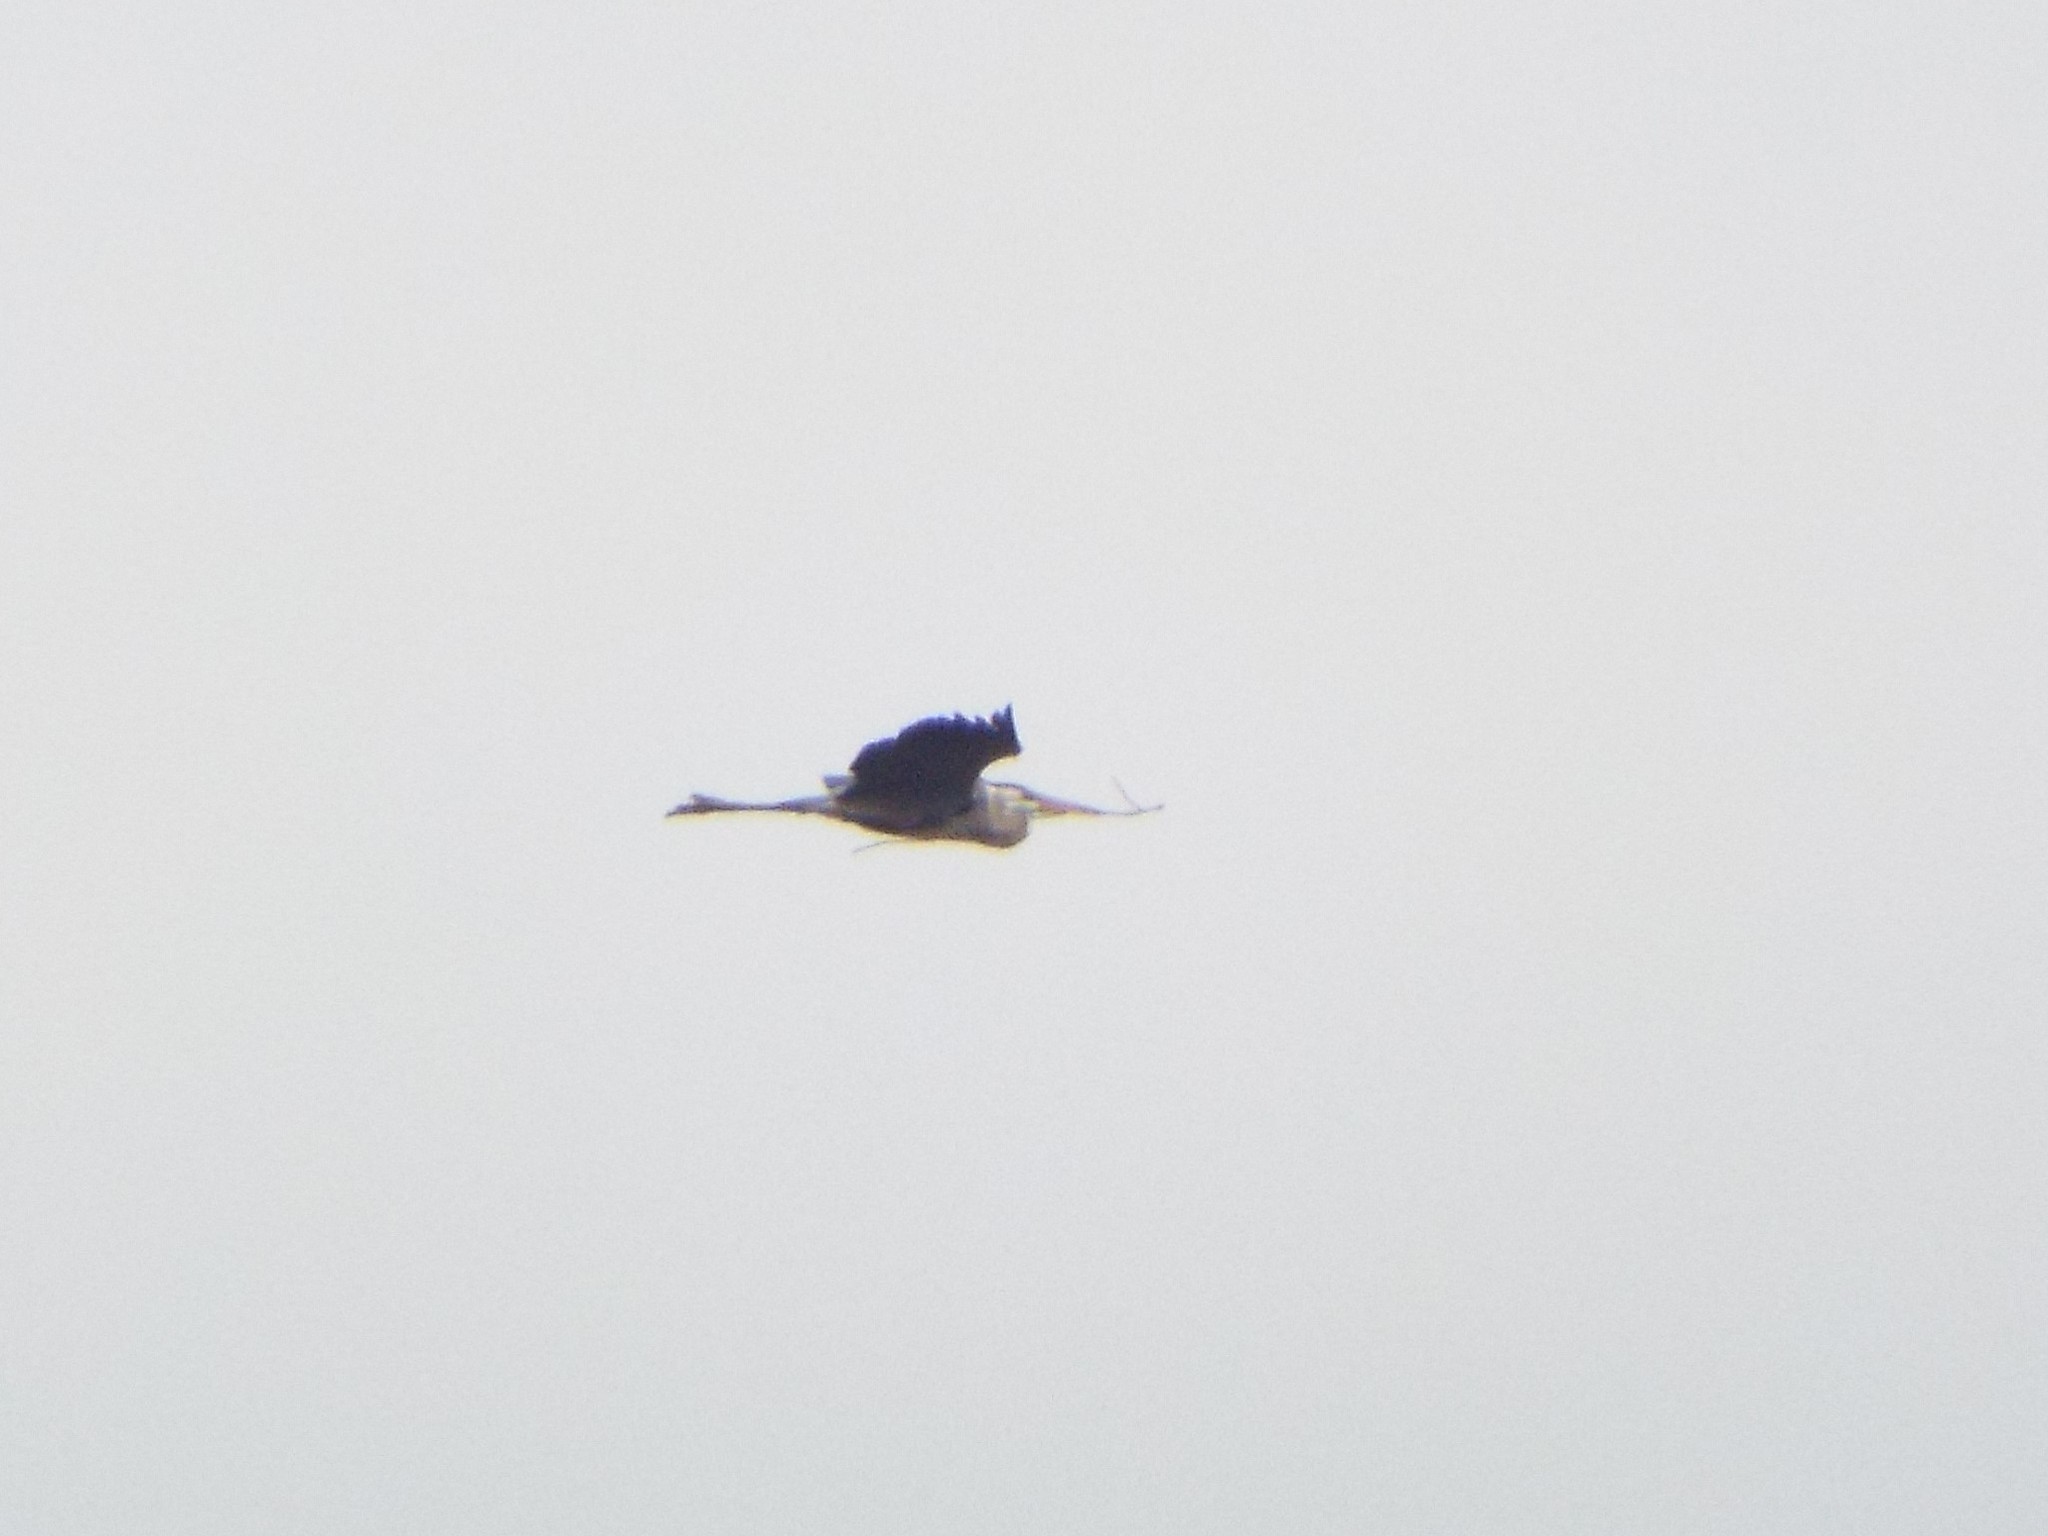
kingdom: Animalia
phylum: Chordata
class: Aves
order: Pelecaniformes
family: Ardeidae
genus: Ardea
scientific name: Ardea herodias
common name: Great blue heron
